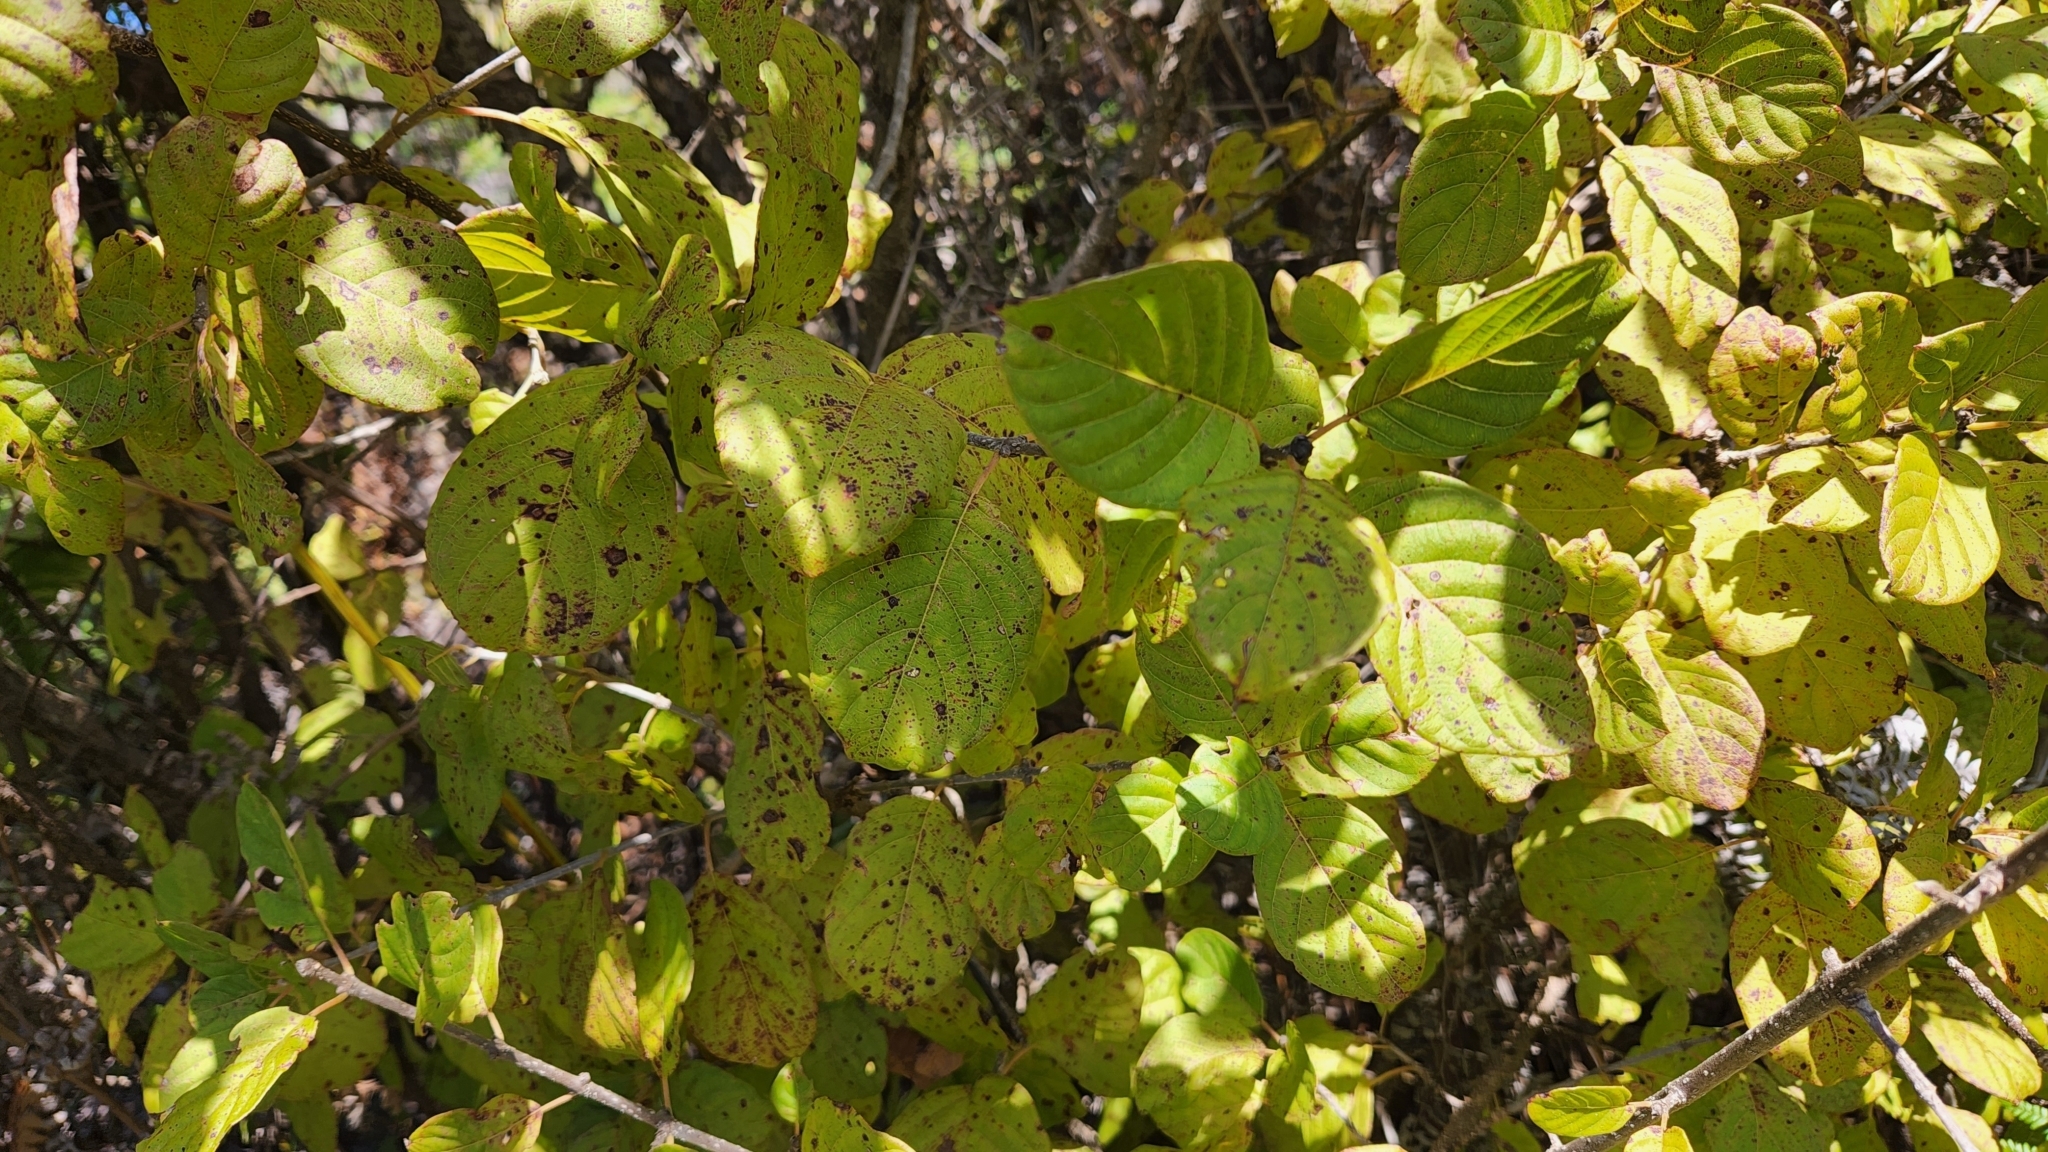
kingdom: Plantae
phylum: Tracheophyta
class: Magnoliopsida
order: Gentianales
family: Rubiaceae
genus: Guettarda
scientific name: Guettarda insularis
